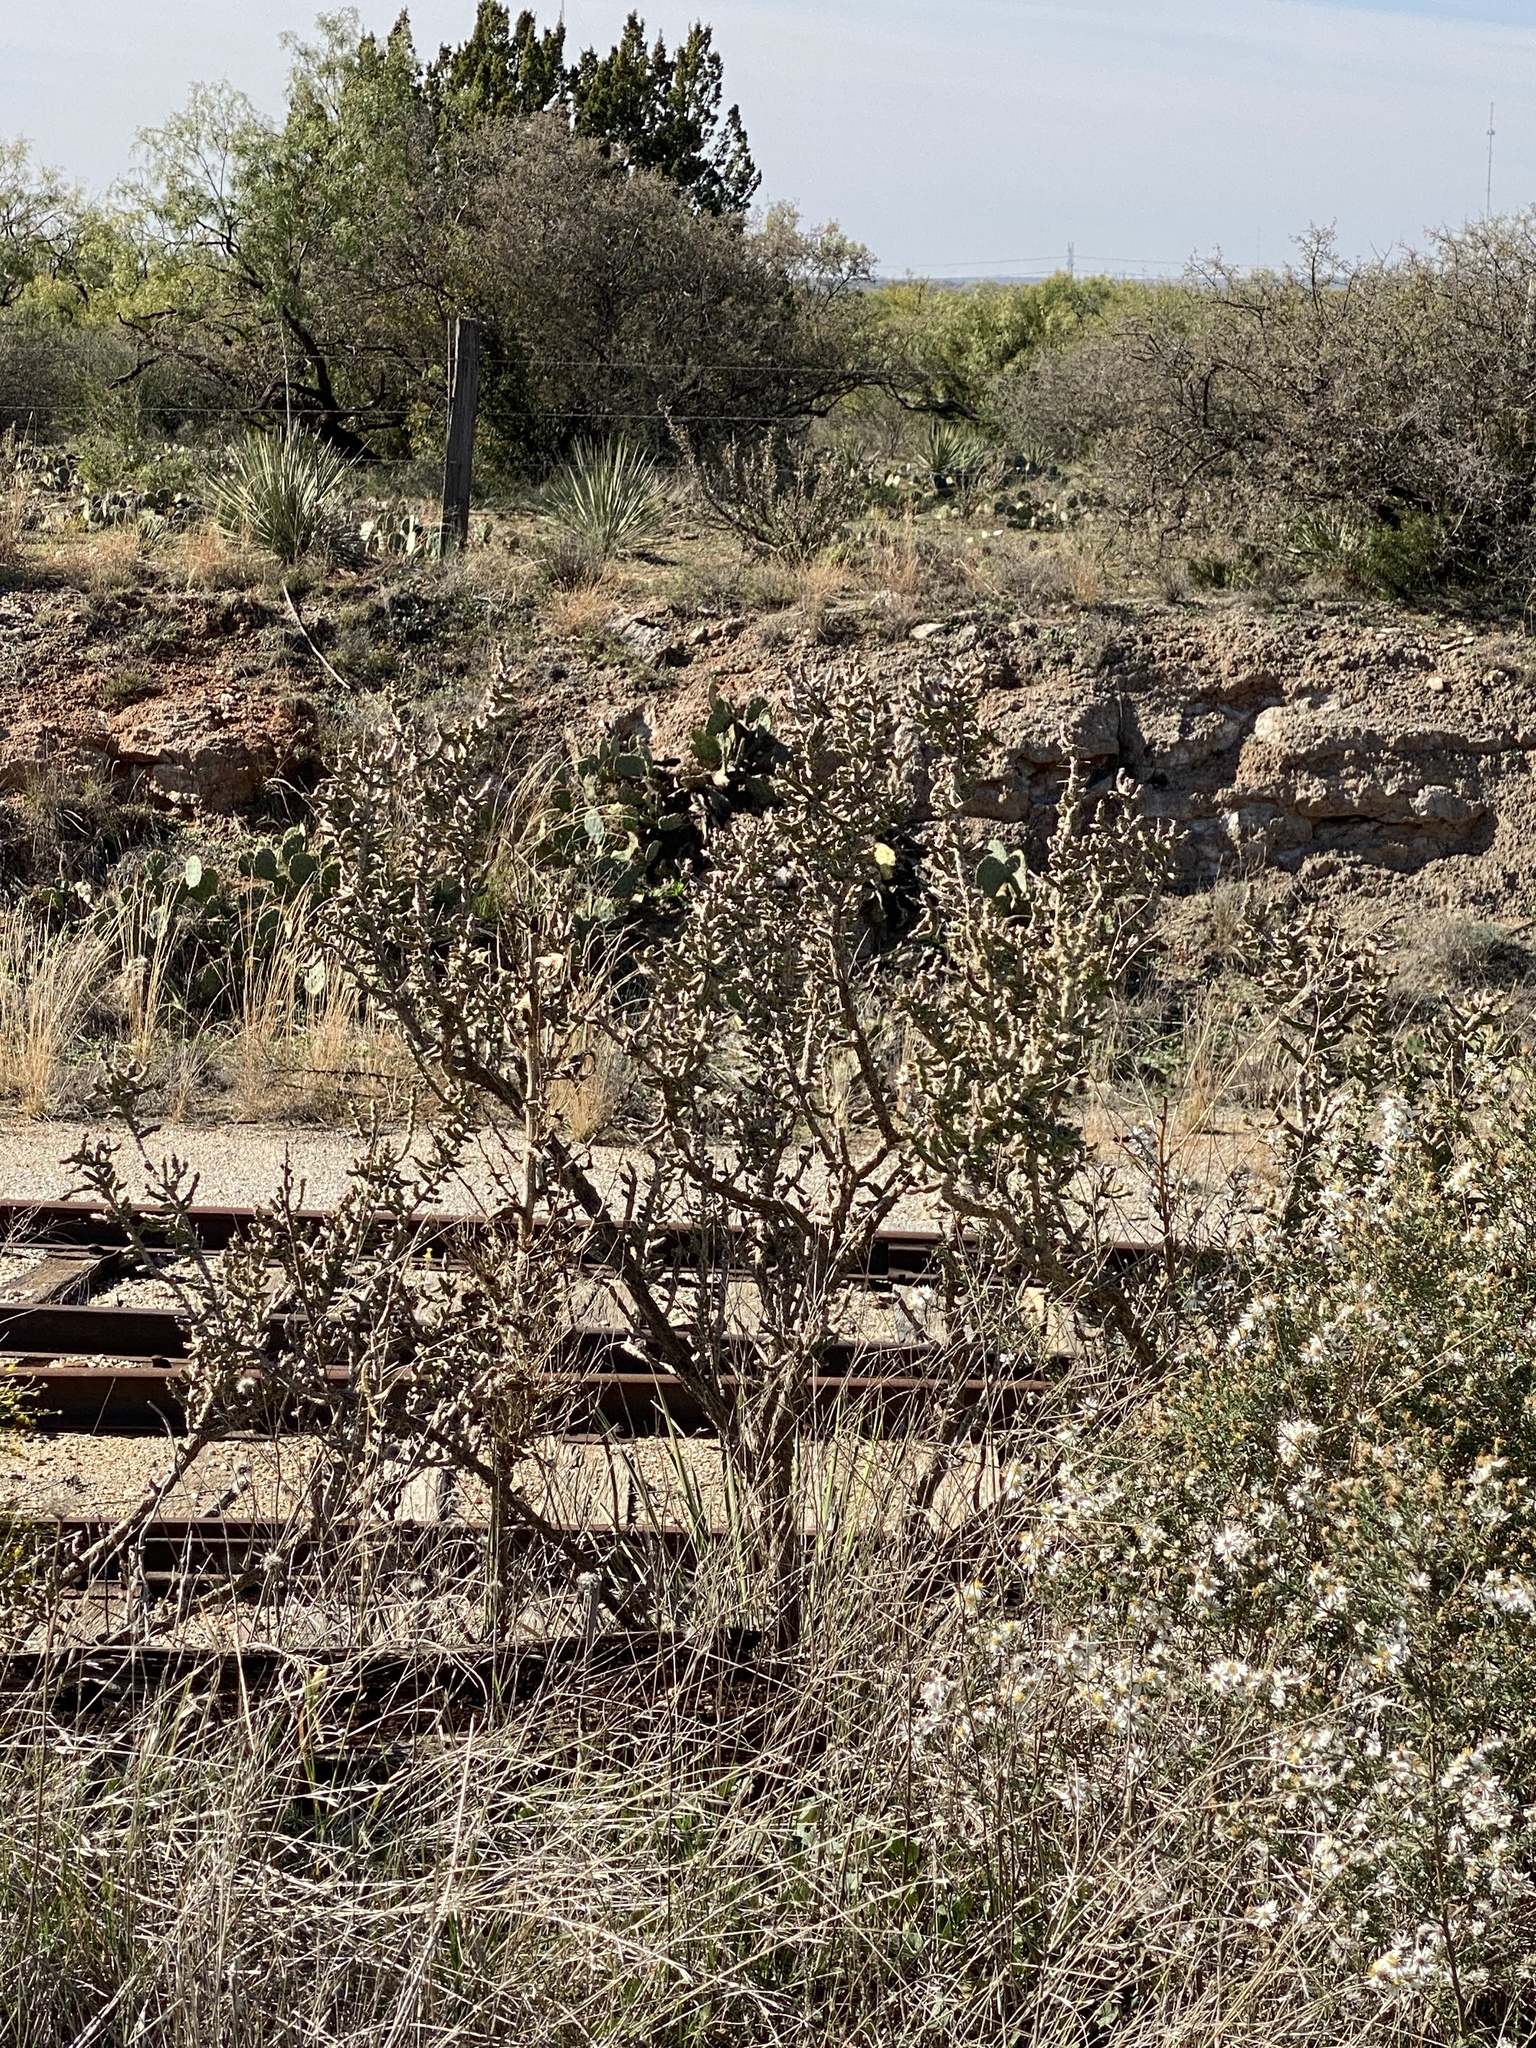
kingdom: Plantae
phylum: Tracheophyta
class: Magnoliopsida
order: Caryophyllales
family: Cactaceae
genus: Cylindropuntia
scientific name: Cylindropuntia leptocaulis
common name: Christmas cactus
